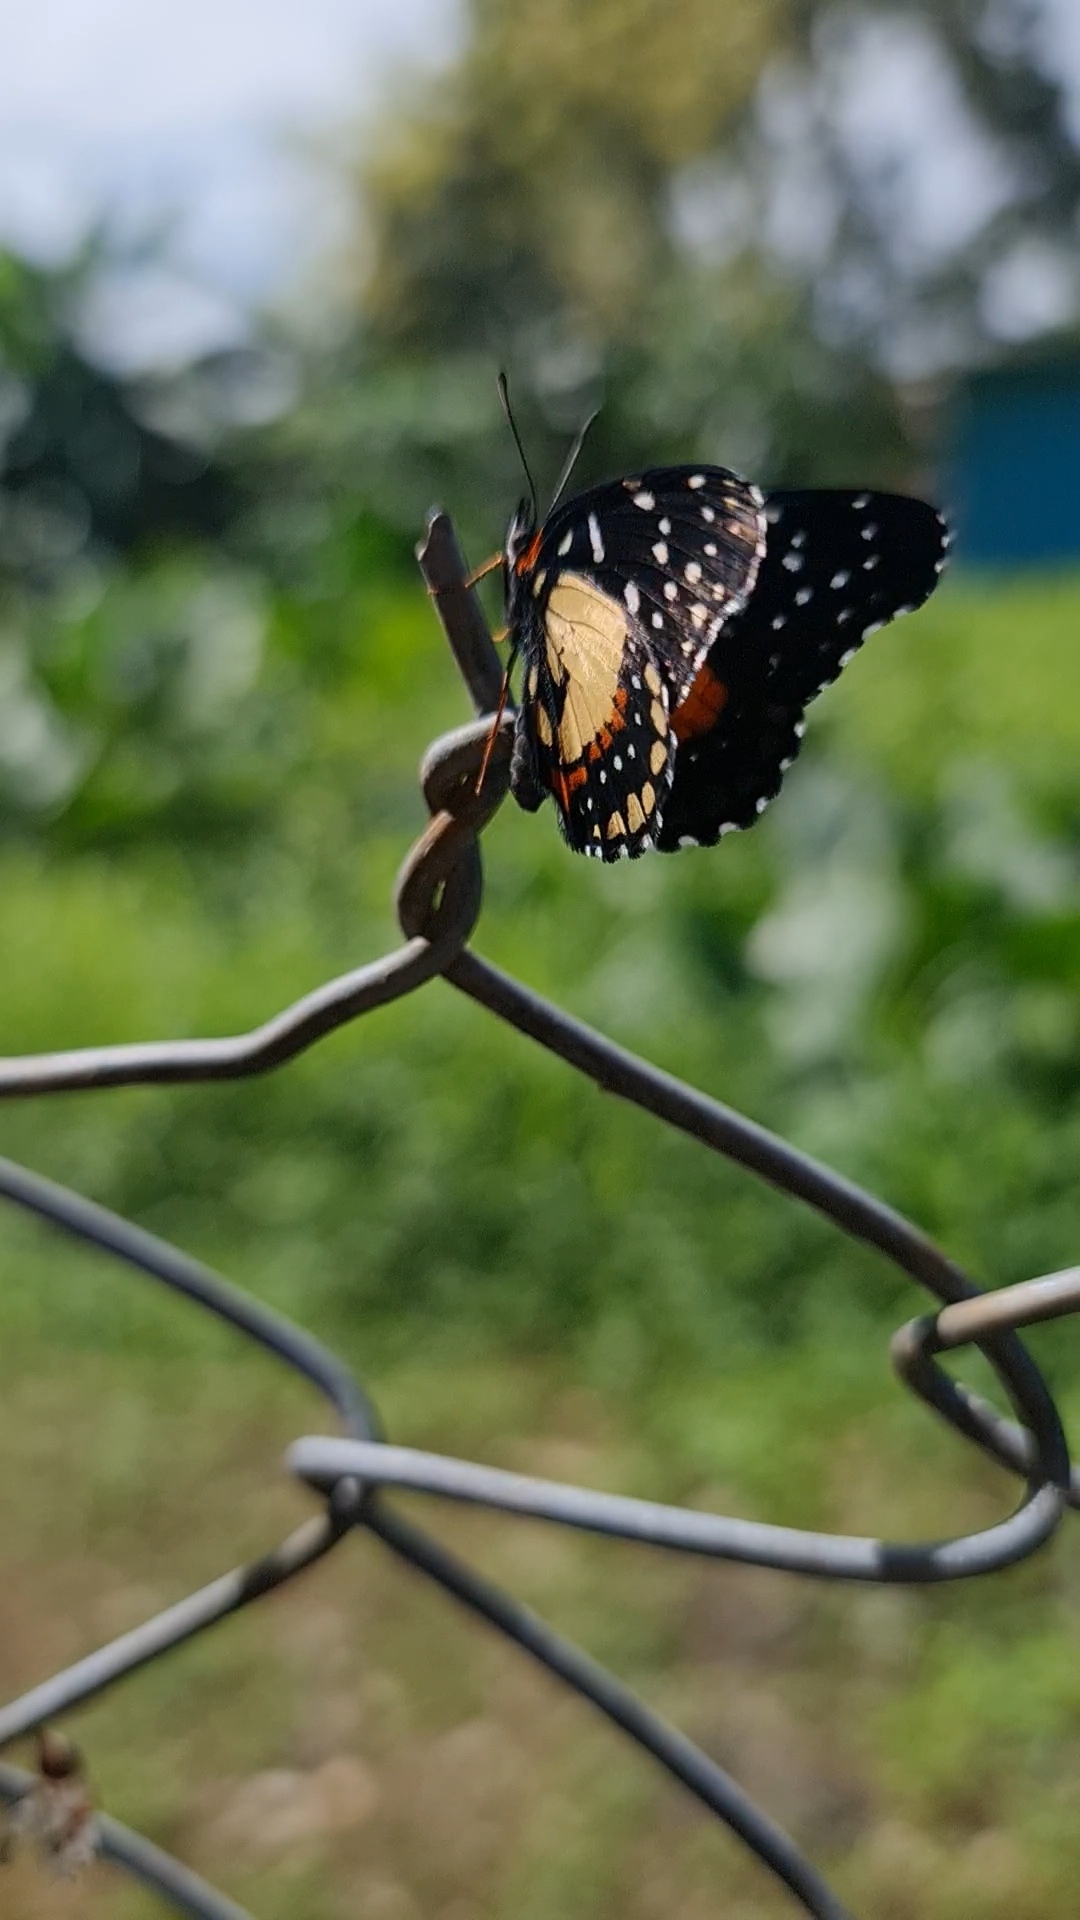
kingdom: Animalia
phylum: Arthropoda
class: Insecta
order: Lepidoptera
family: Nymphalidae
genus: Chlosyne
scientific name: Chlosyne janais
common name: Crimson patch
